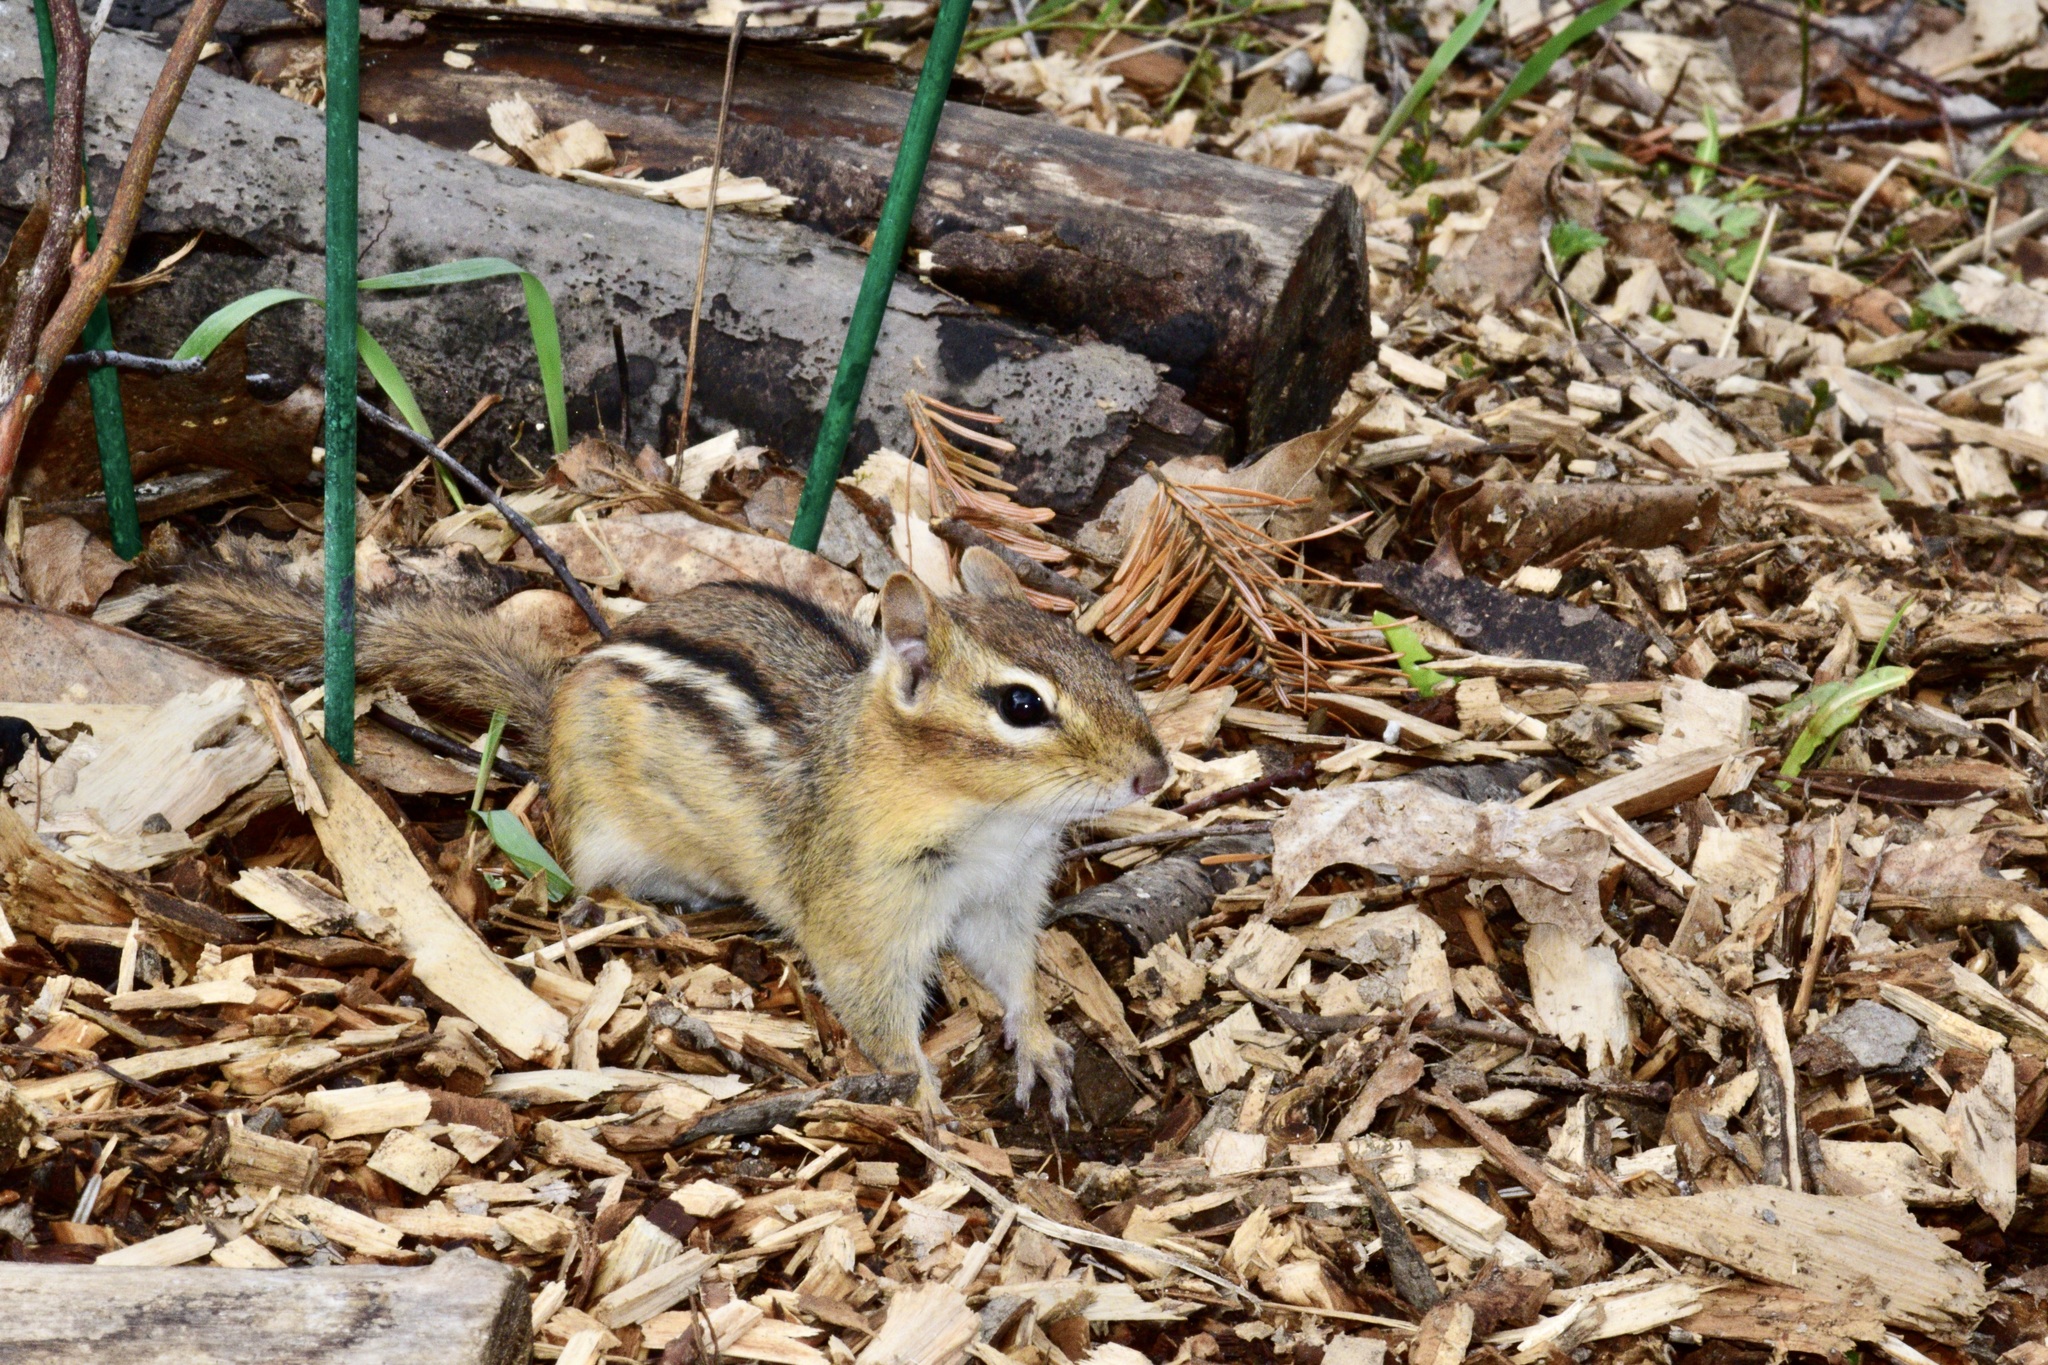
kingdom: Animalia
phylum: Chordata
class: Mammalia
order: Rodentia
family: Sciuridae
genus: Tamias
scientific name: Tamias striatus
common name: Eastern chipmunk
